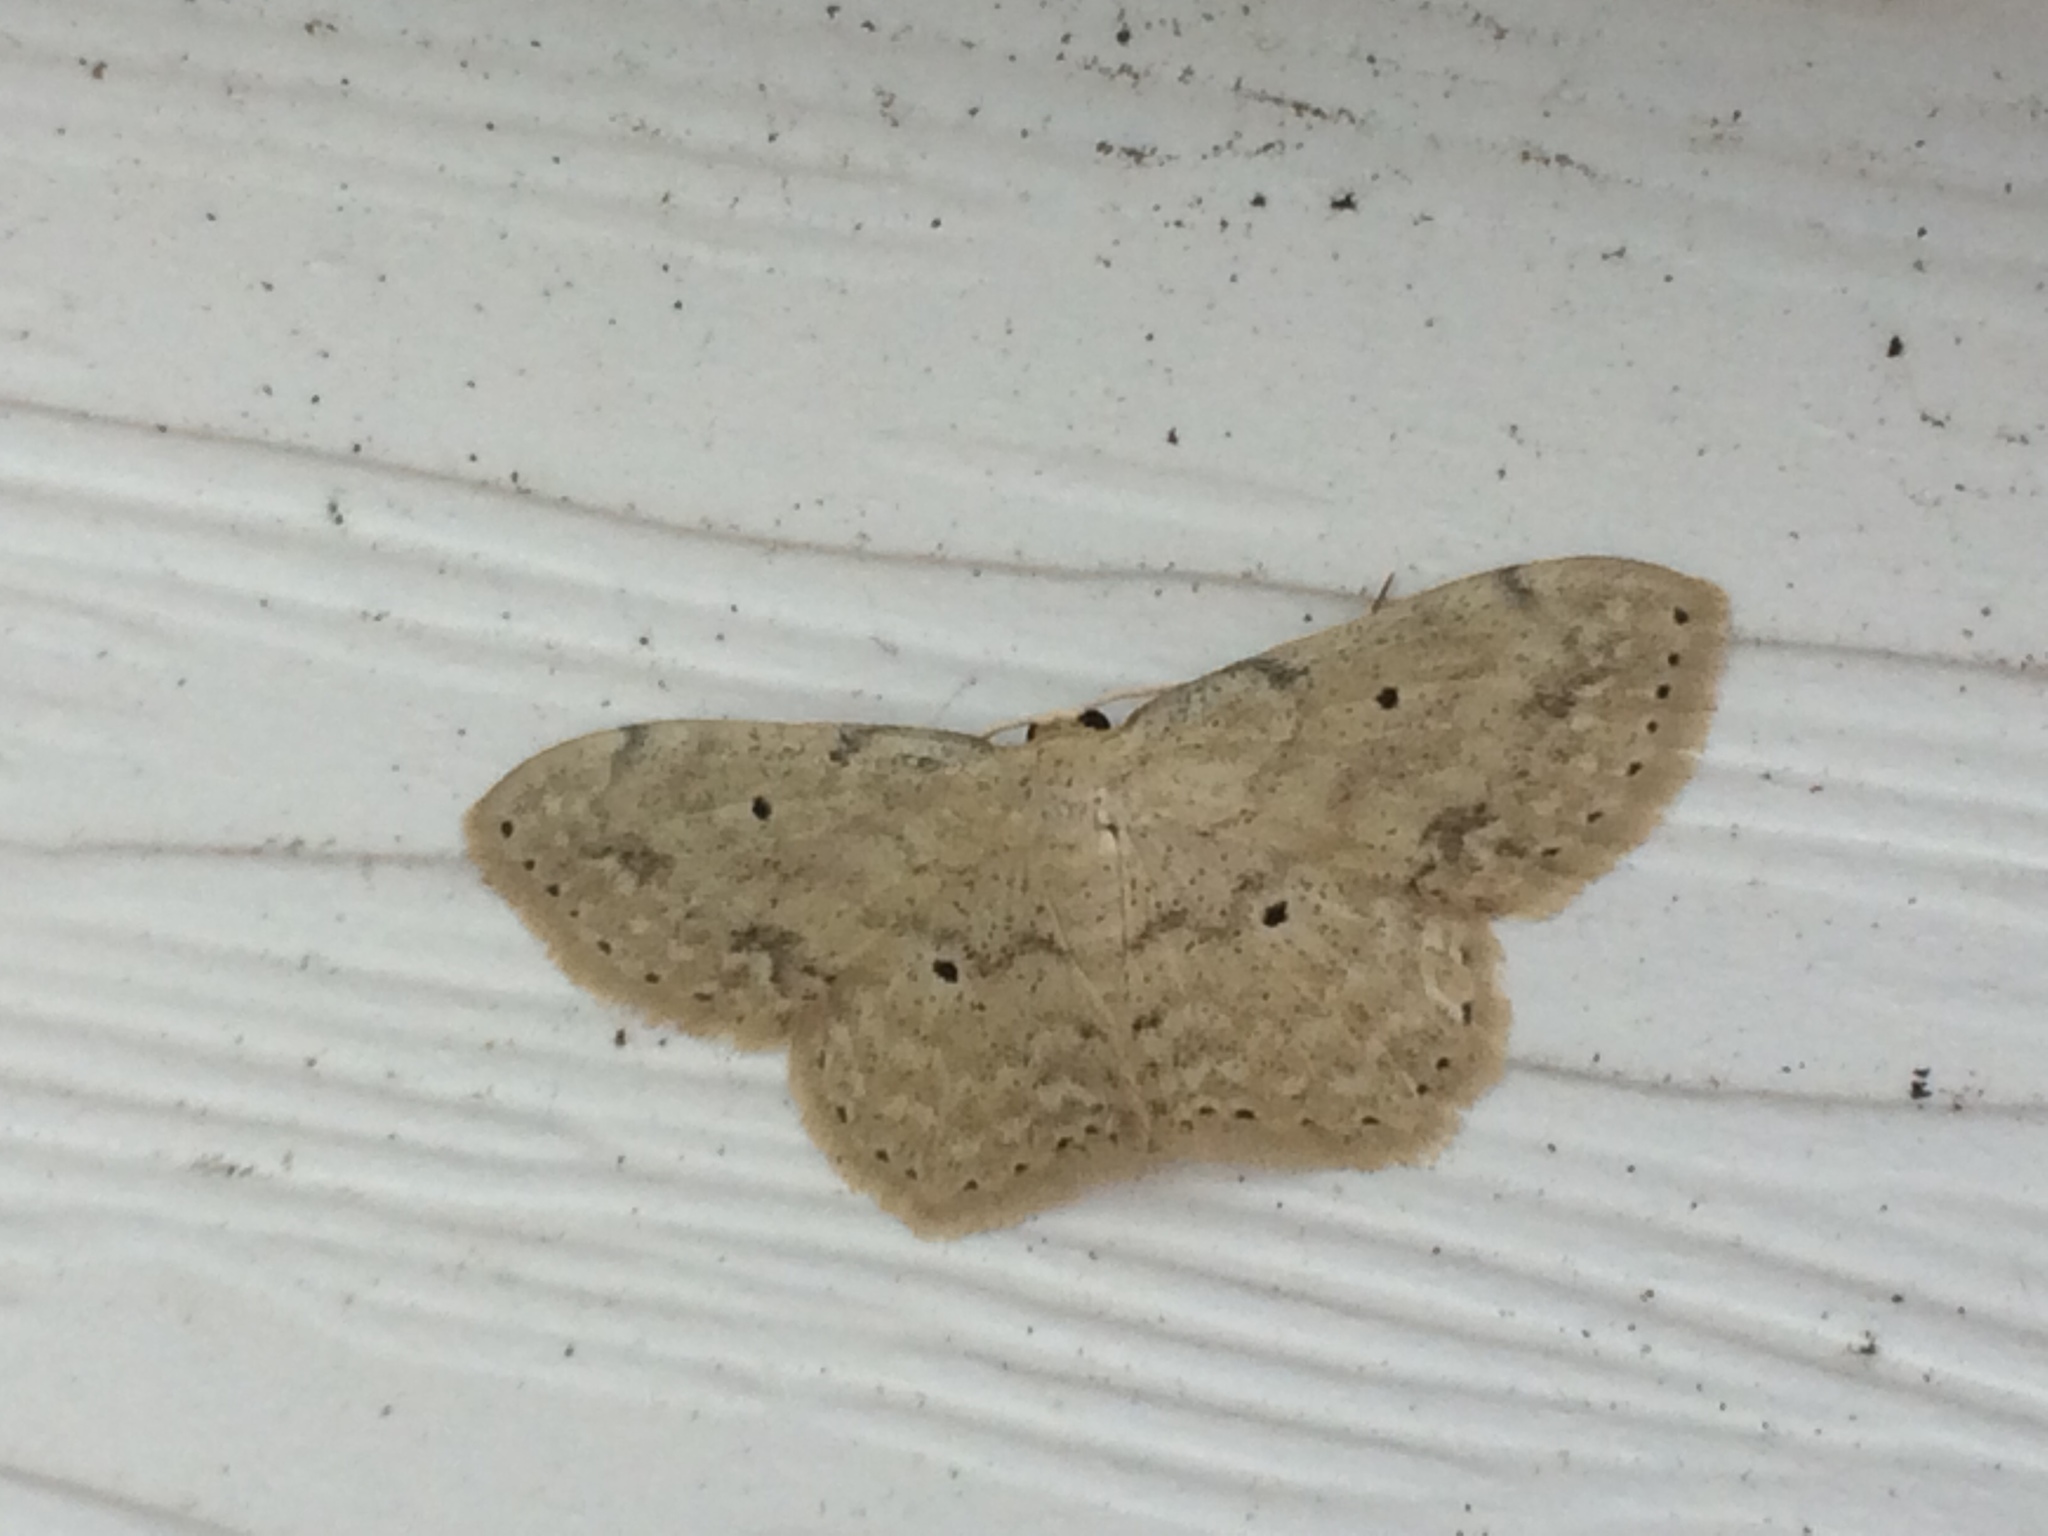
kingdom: Animalia
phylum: Arthropoda
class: Insecta
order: Lepidoptera
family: Geometridae
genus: Scopula
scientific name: Scopula aemulata
